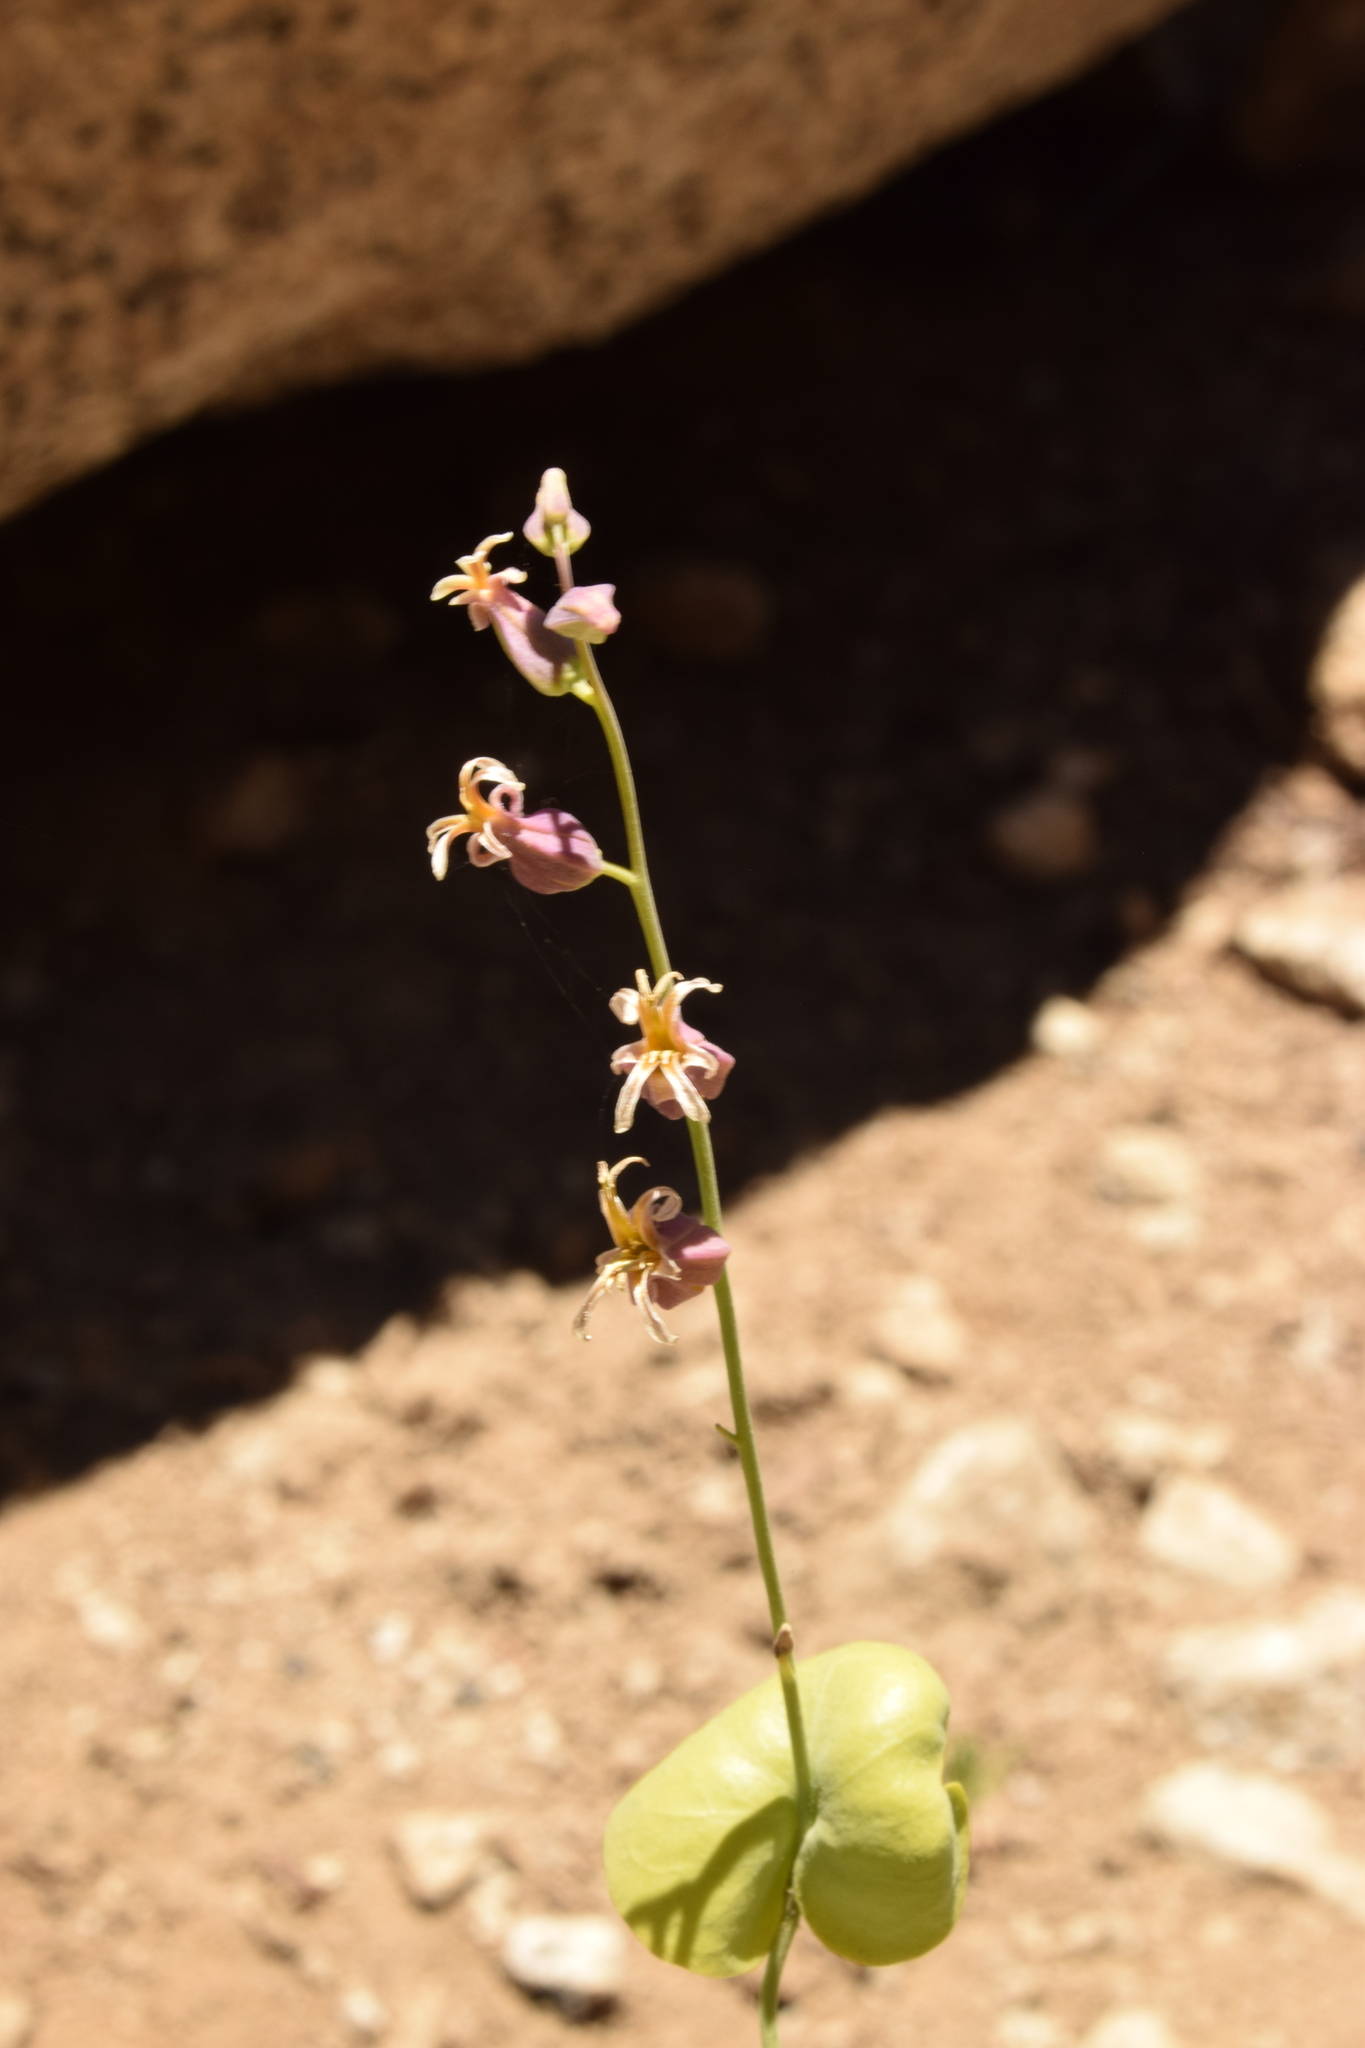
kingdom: Plantae
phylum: Tracheophyta
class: Magnoliopsida
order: Brassicales
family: Brassicaceae
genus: Streptanthus
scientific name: Streptanthus tortuosus
